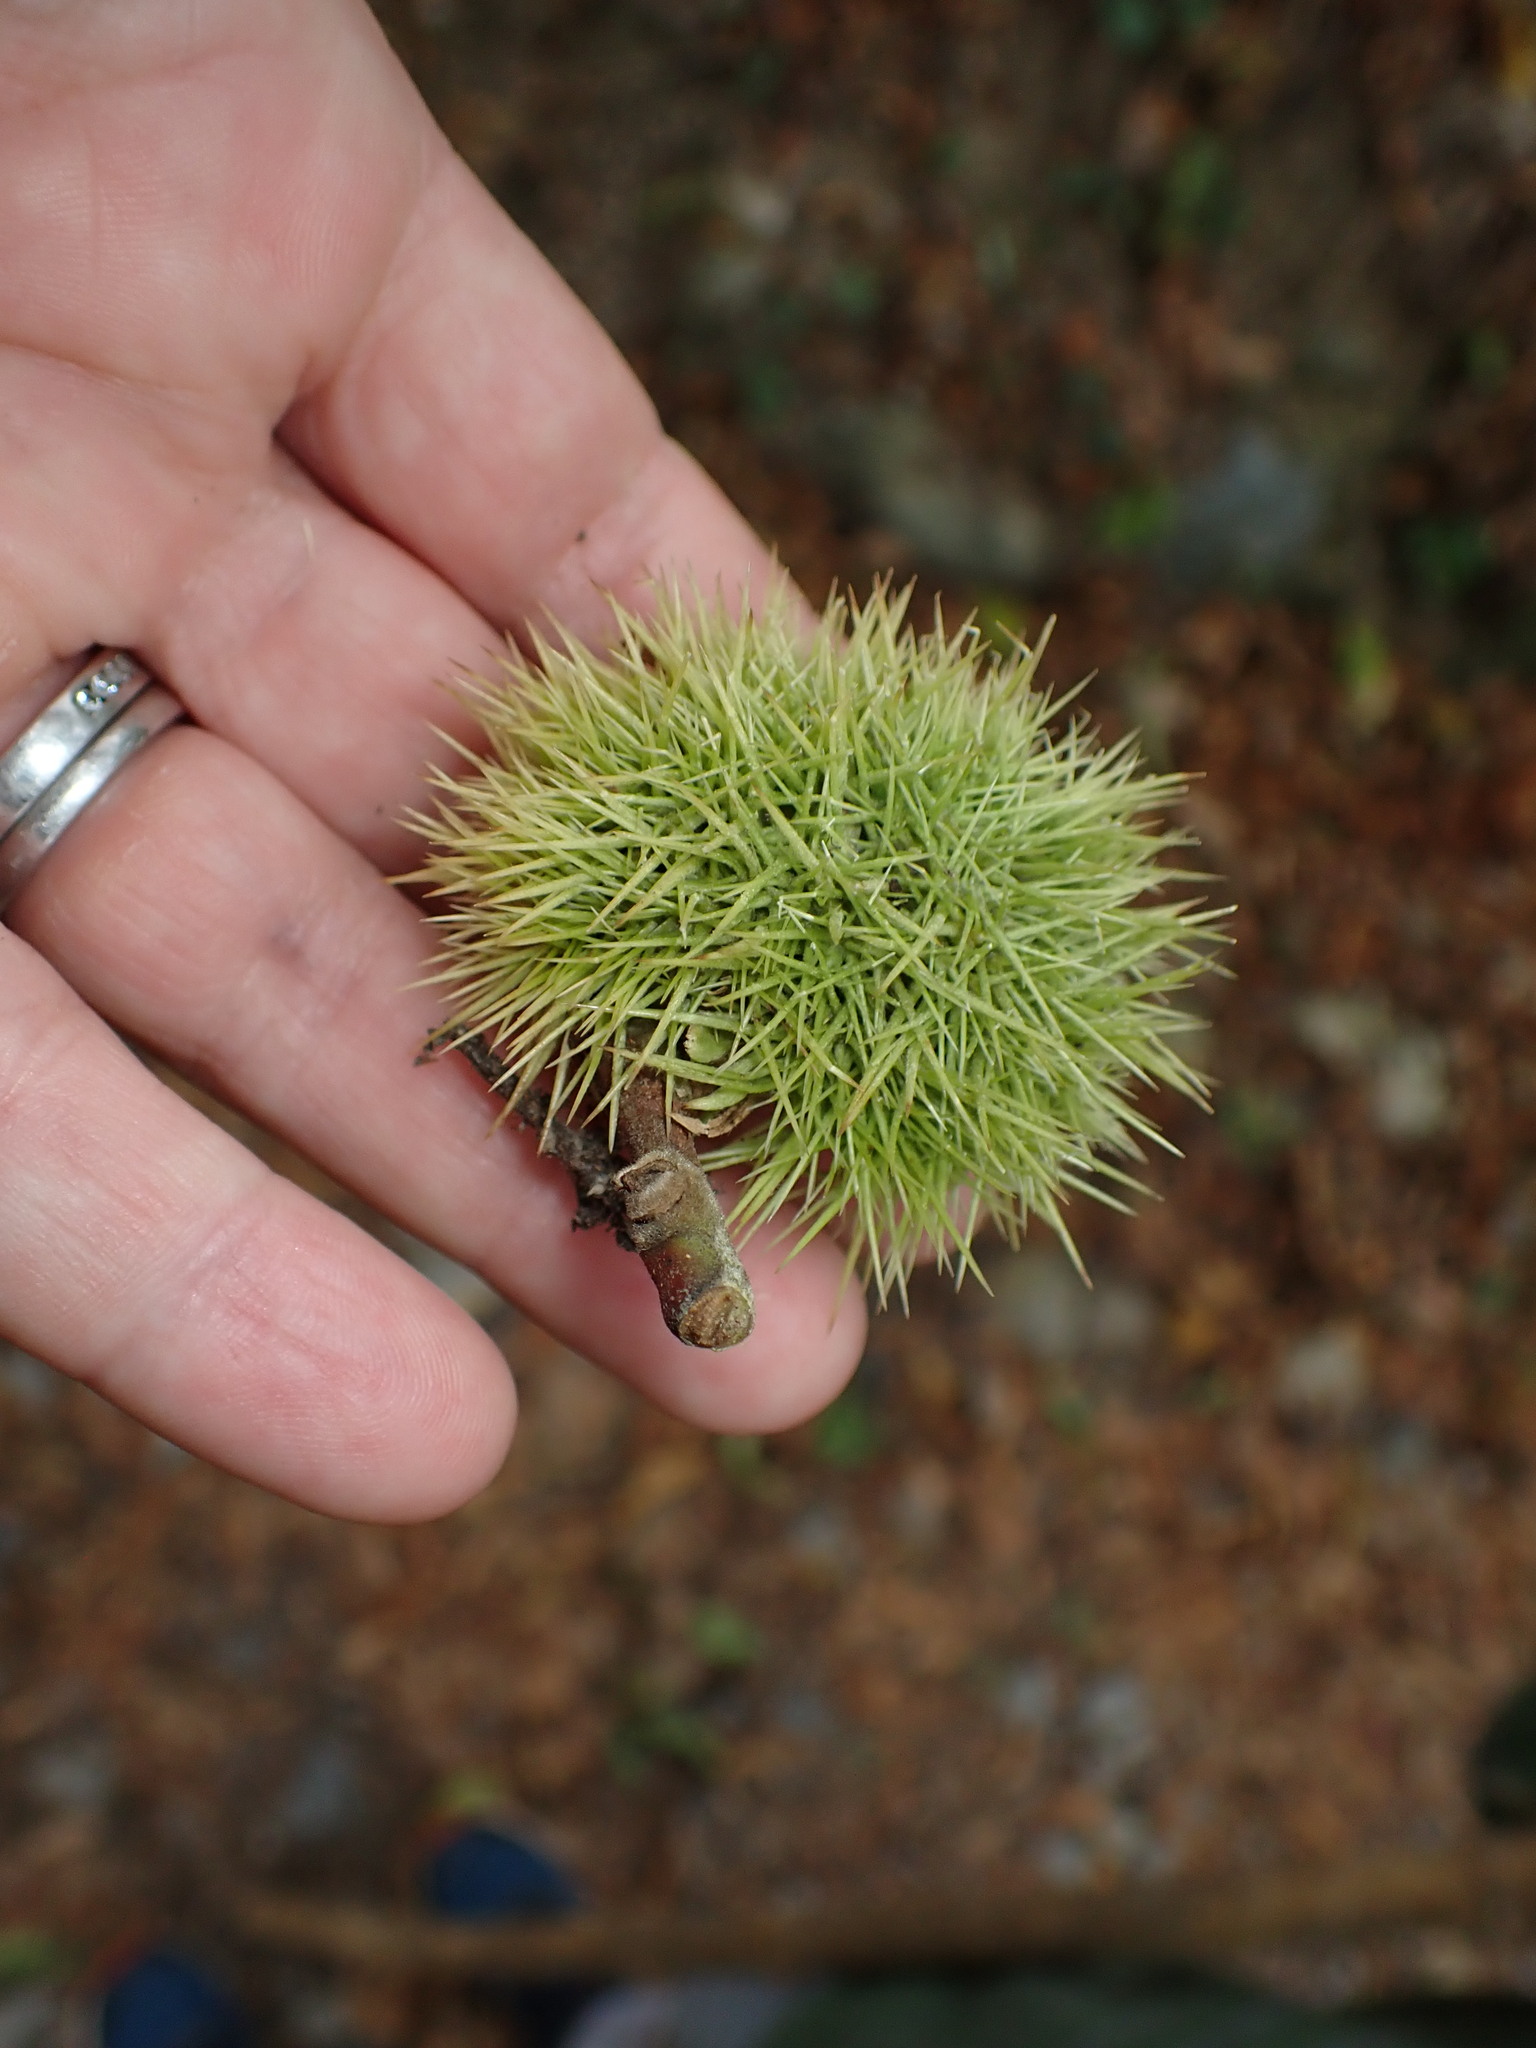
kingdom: Plantae
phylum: Tracheophyta
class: Magnoliopsida
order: Fagales
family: Fagaceae
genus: Castanea
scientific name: Castanea sativa
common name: Sweet chestnut
